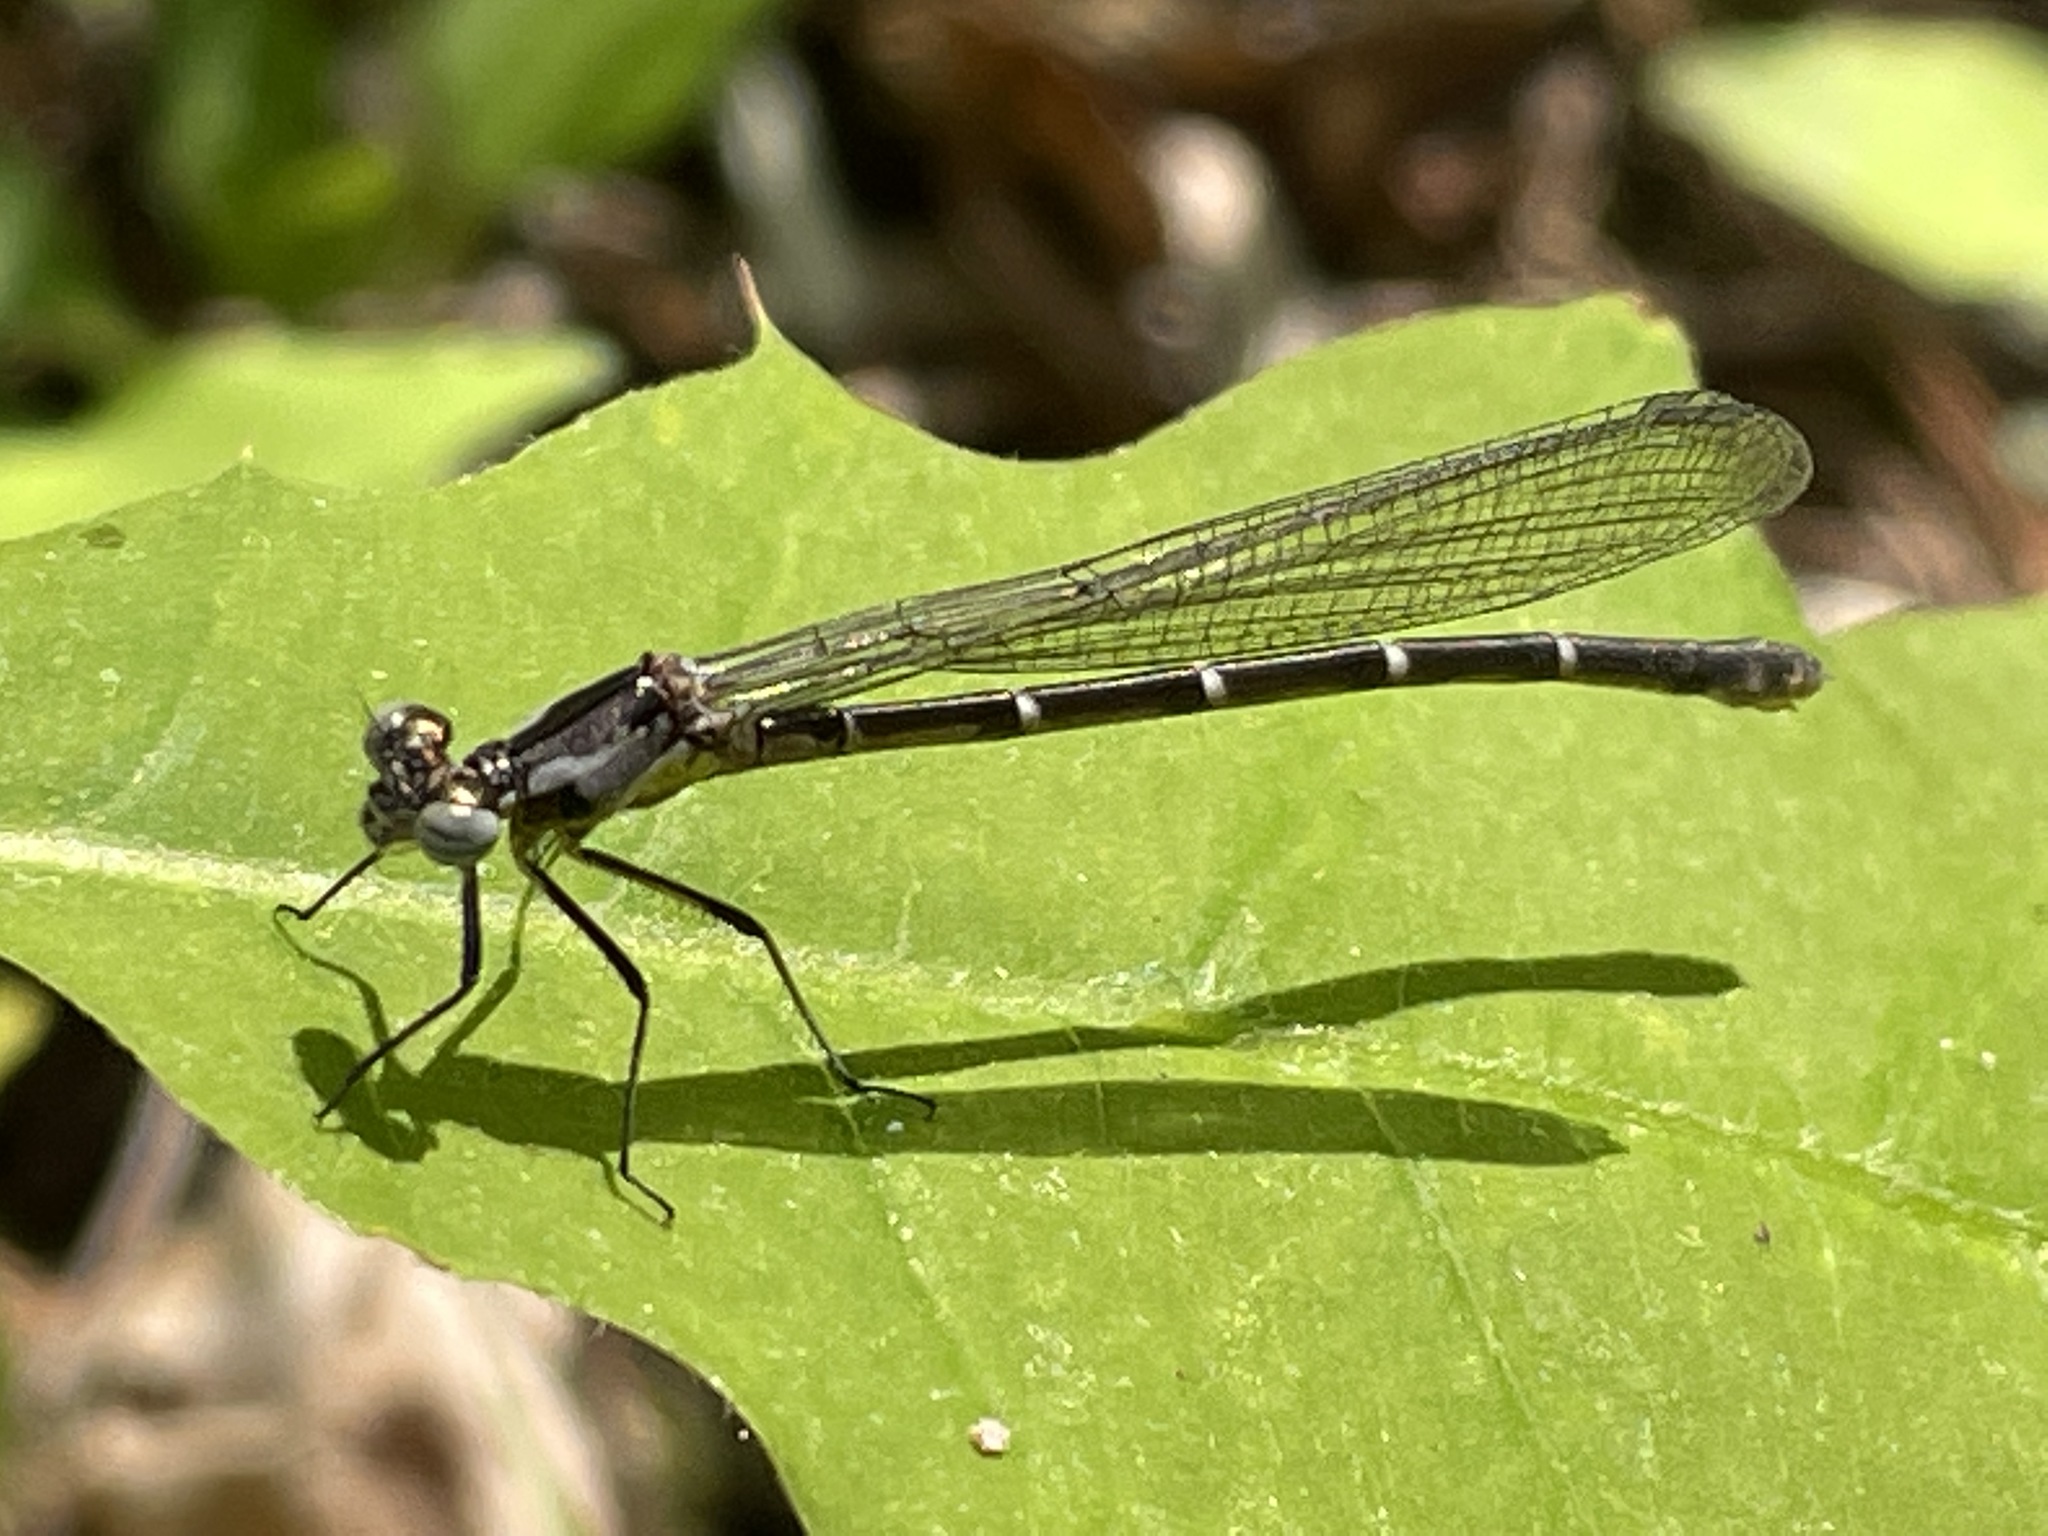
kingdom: Animalia
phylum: Arthropoda
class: Insecta
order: Odonata
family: Coenagrionidae
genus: Chromagrion
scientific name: Chromagrion conditum
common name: Aurora damsel
